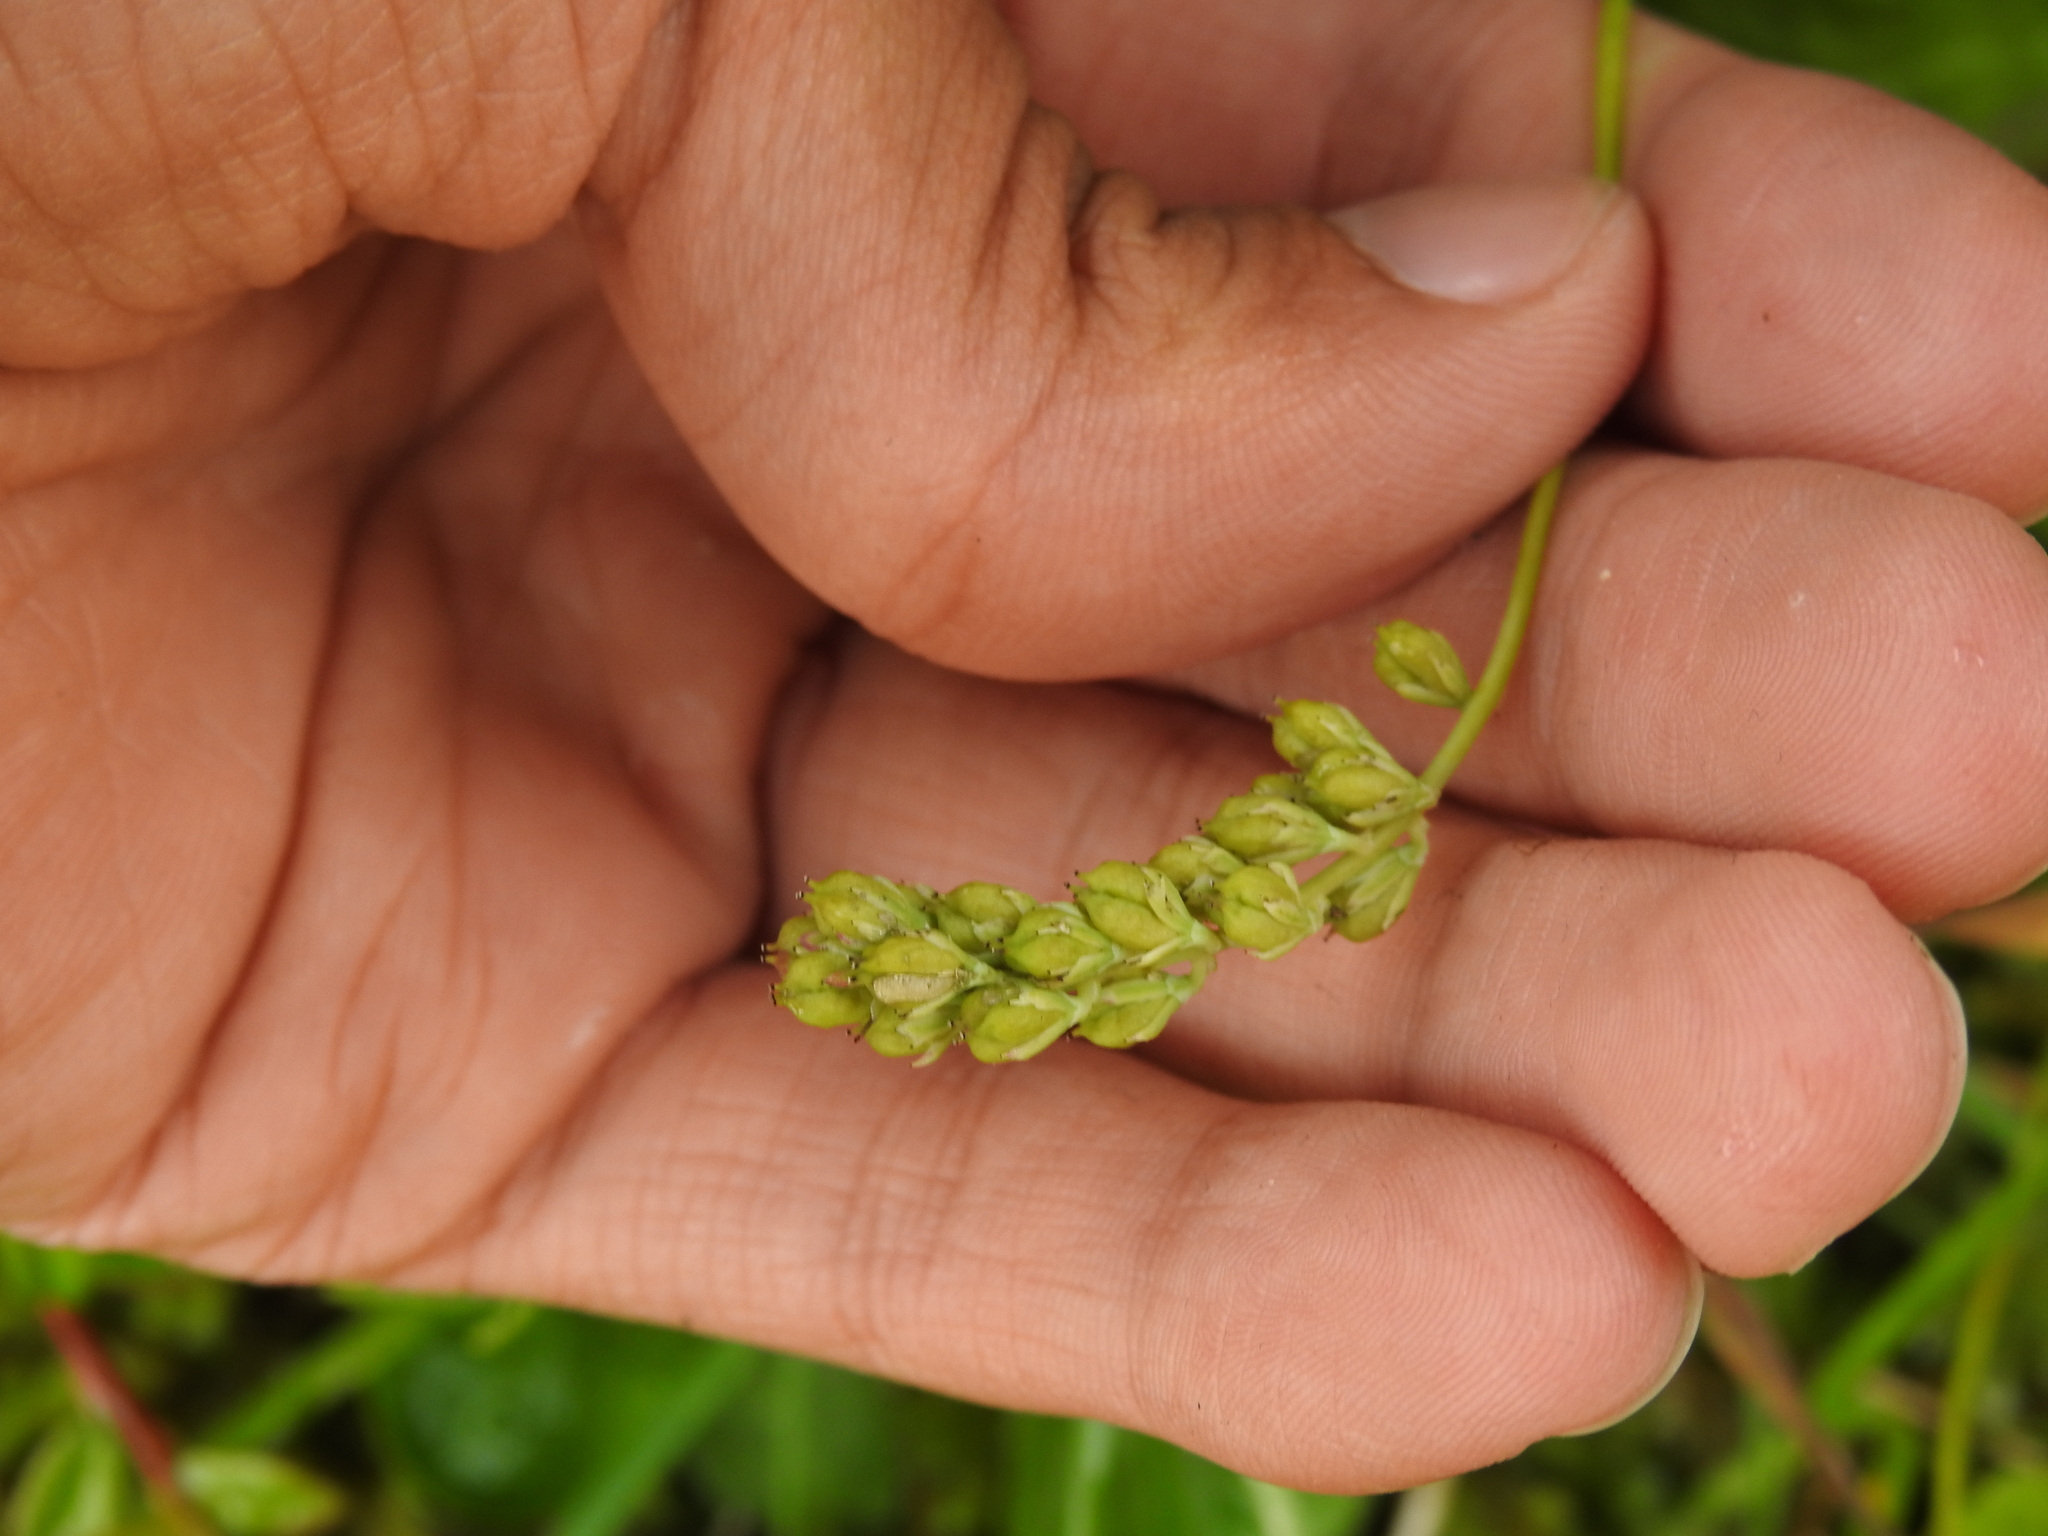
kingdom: Plantae
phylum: Tracheophyta
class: Liliopsida
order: Alismatales
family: Tofieldiaceae
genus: Tofieldia
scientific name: Tofieldia calyculata
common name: German-asphodel
